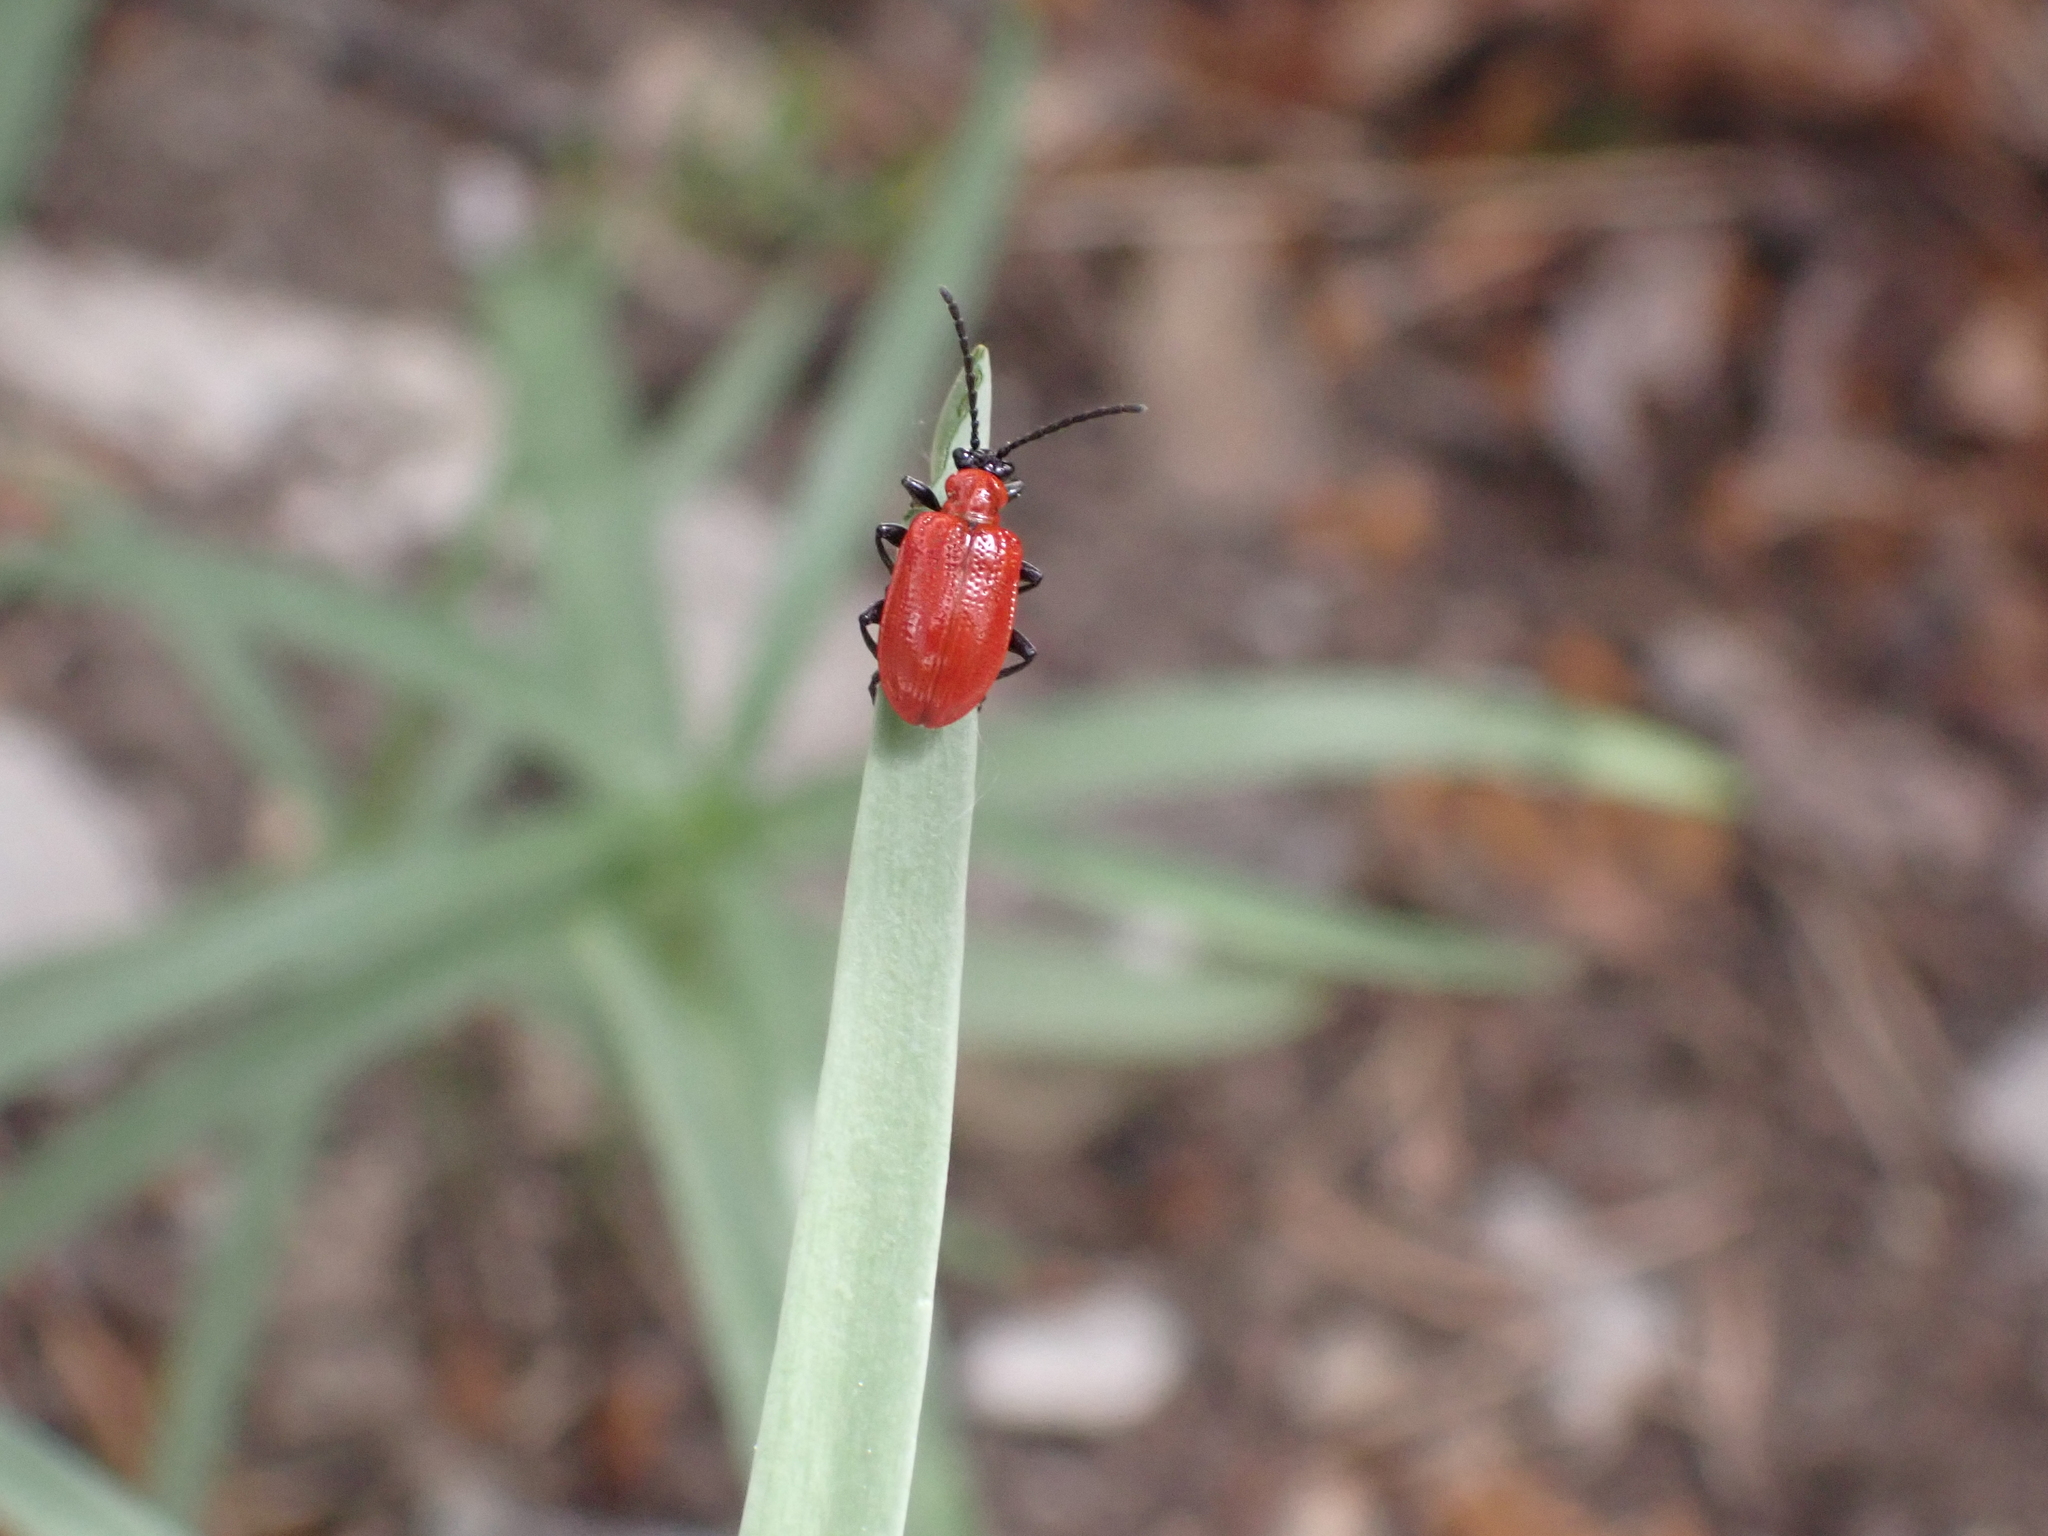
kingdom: Animalia
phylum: Arthropoda
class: Insecta
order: Coleoptera
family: Chrysomelidae
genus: Lilioceris
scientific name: Lilioceris lilii
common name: Lily beetle
